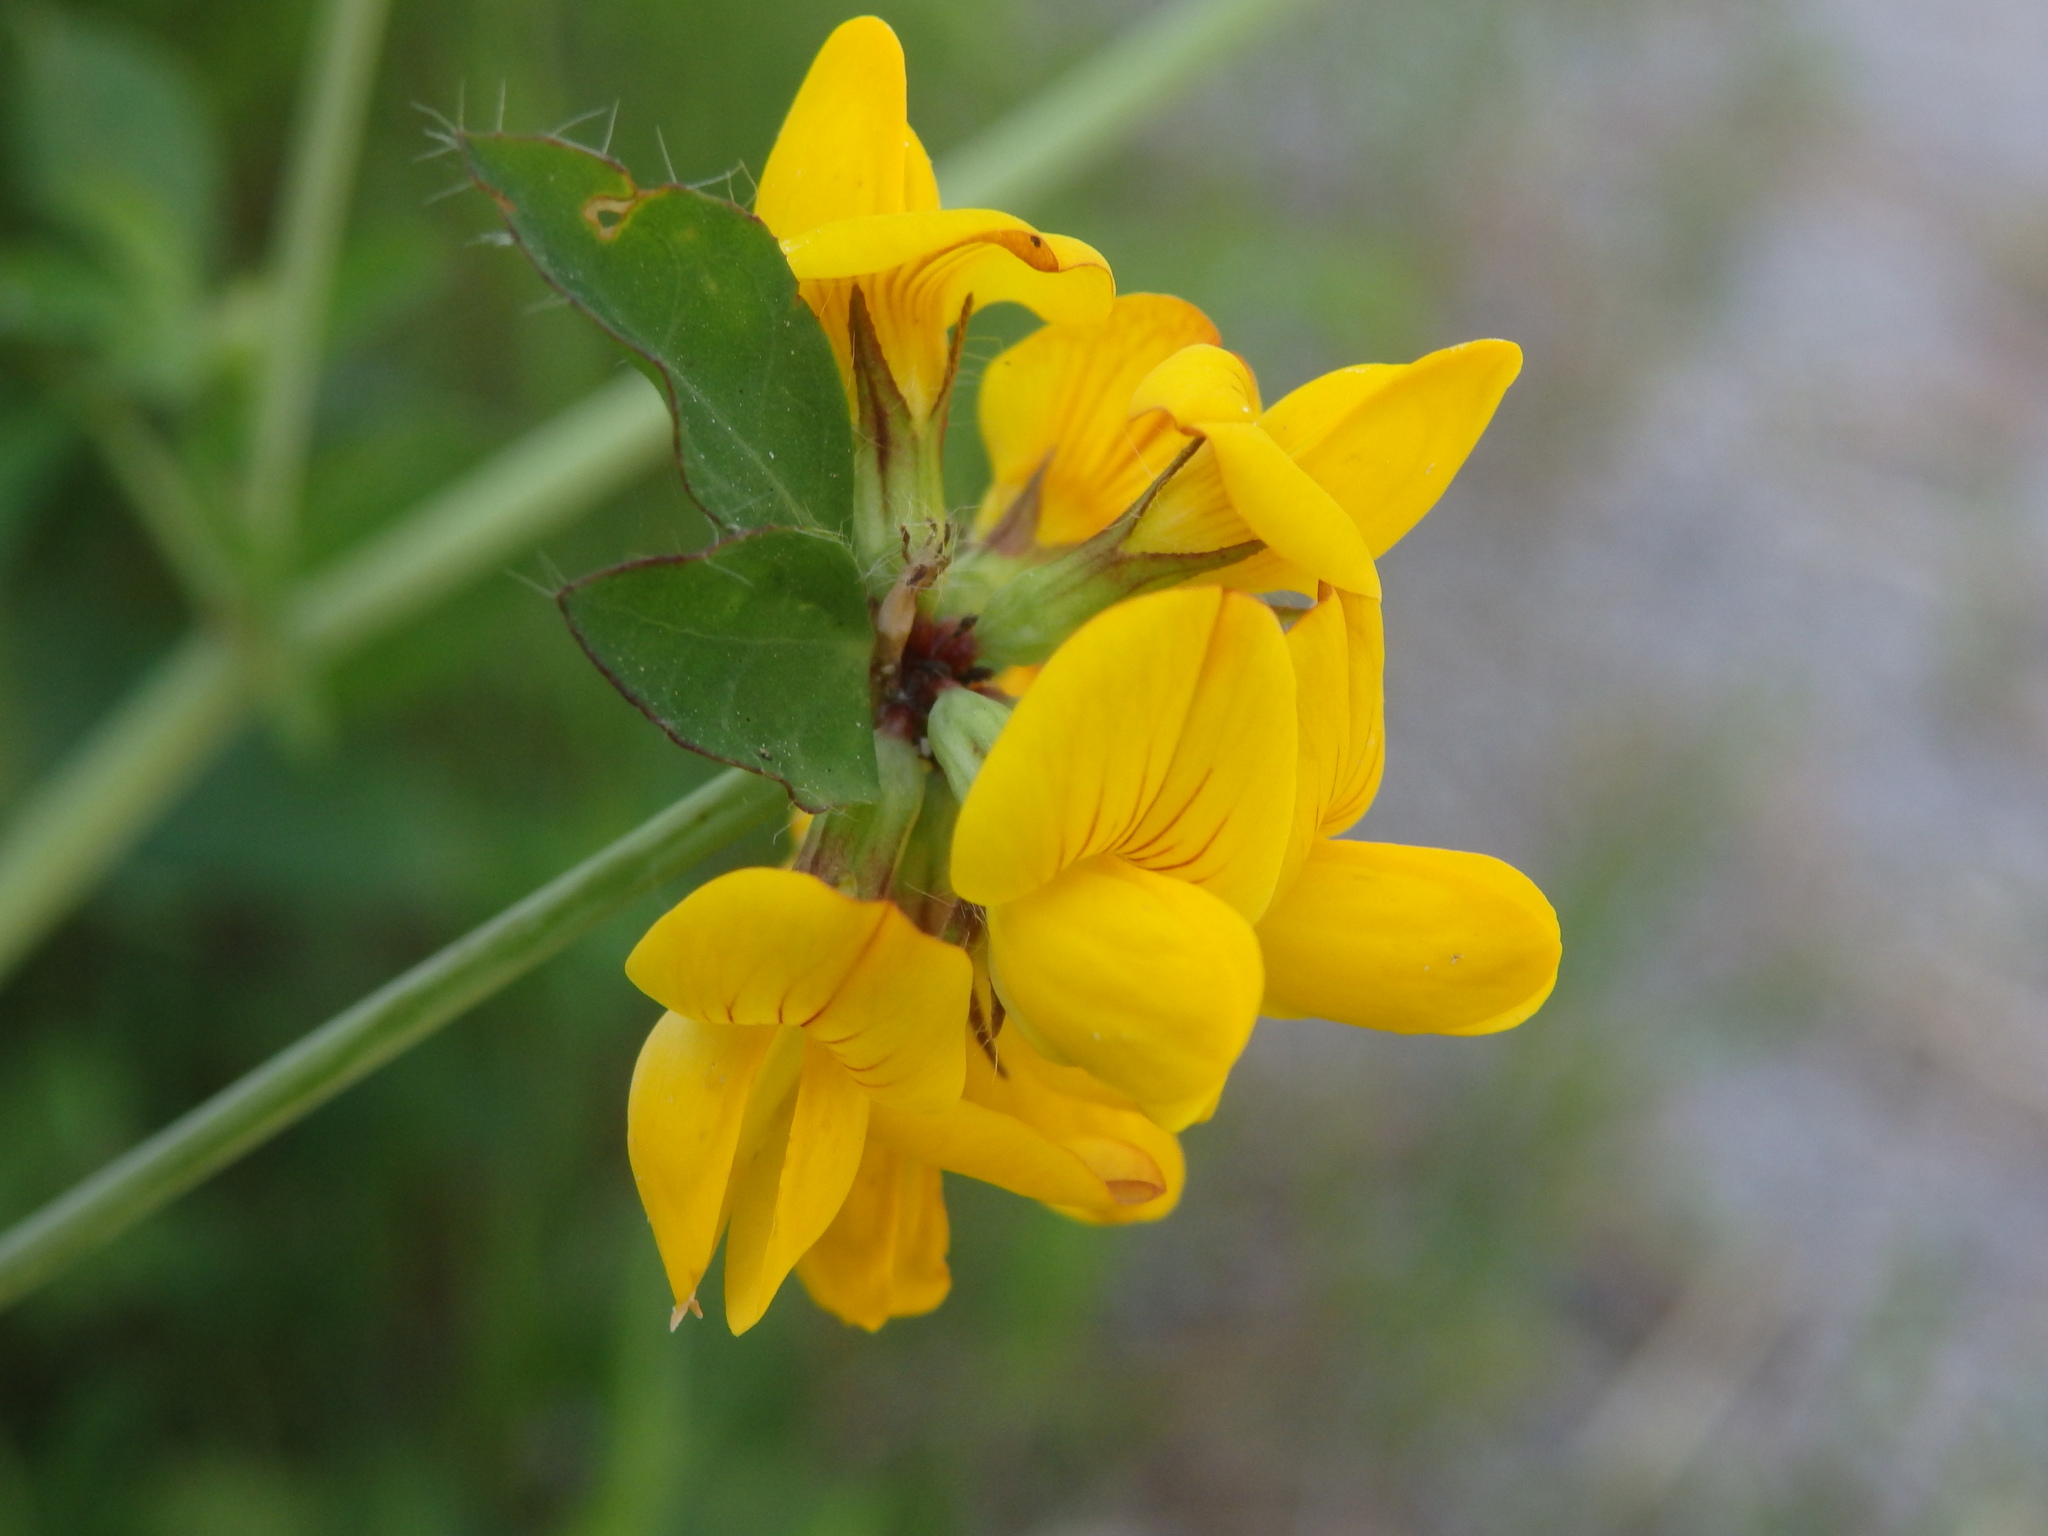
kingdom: Plantae
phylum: Tracheophyta
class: Magnoliopsida
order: Fabales
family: Fabaceae
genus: Lotus
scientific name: Lotus pedunculatus
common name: Greater birdsfoot-trefoil
